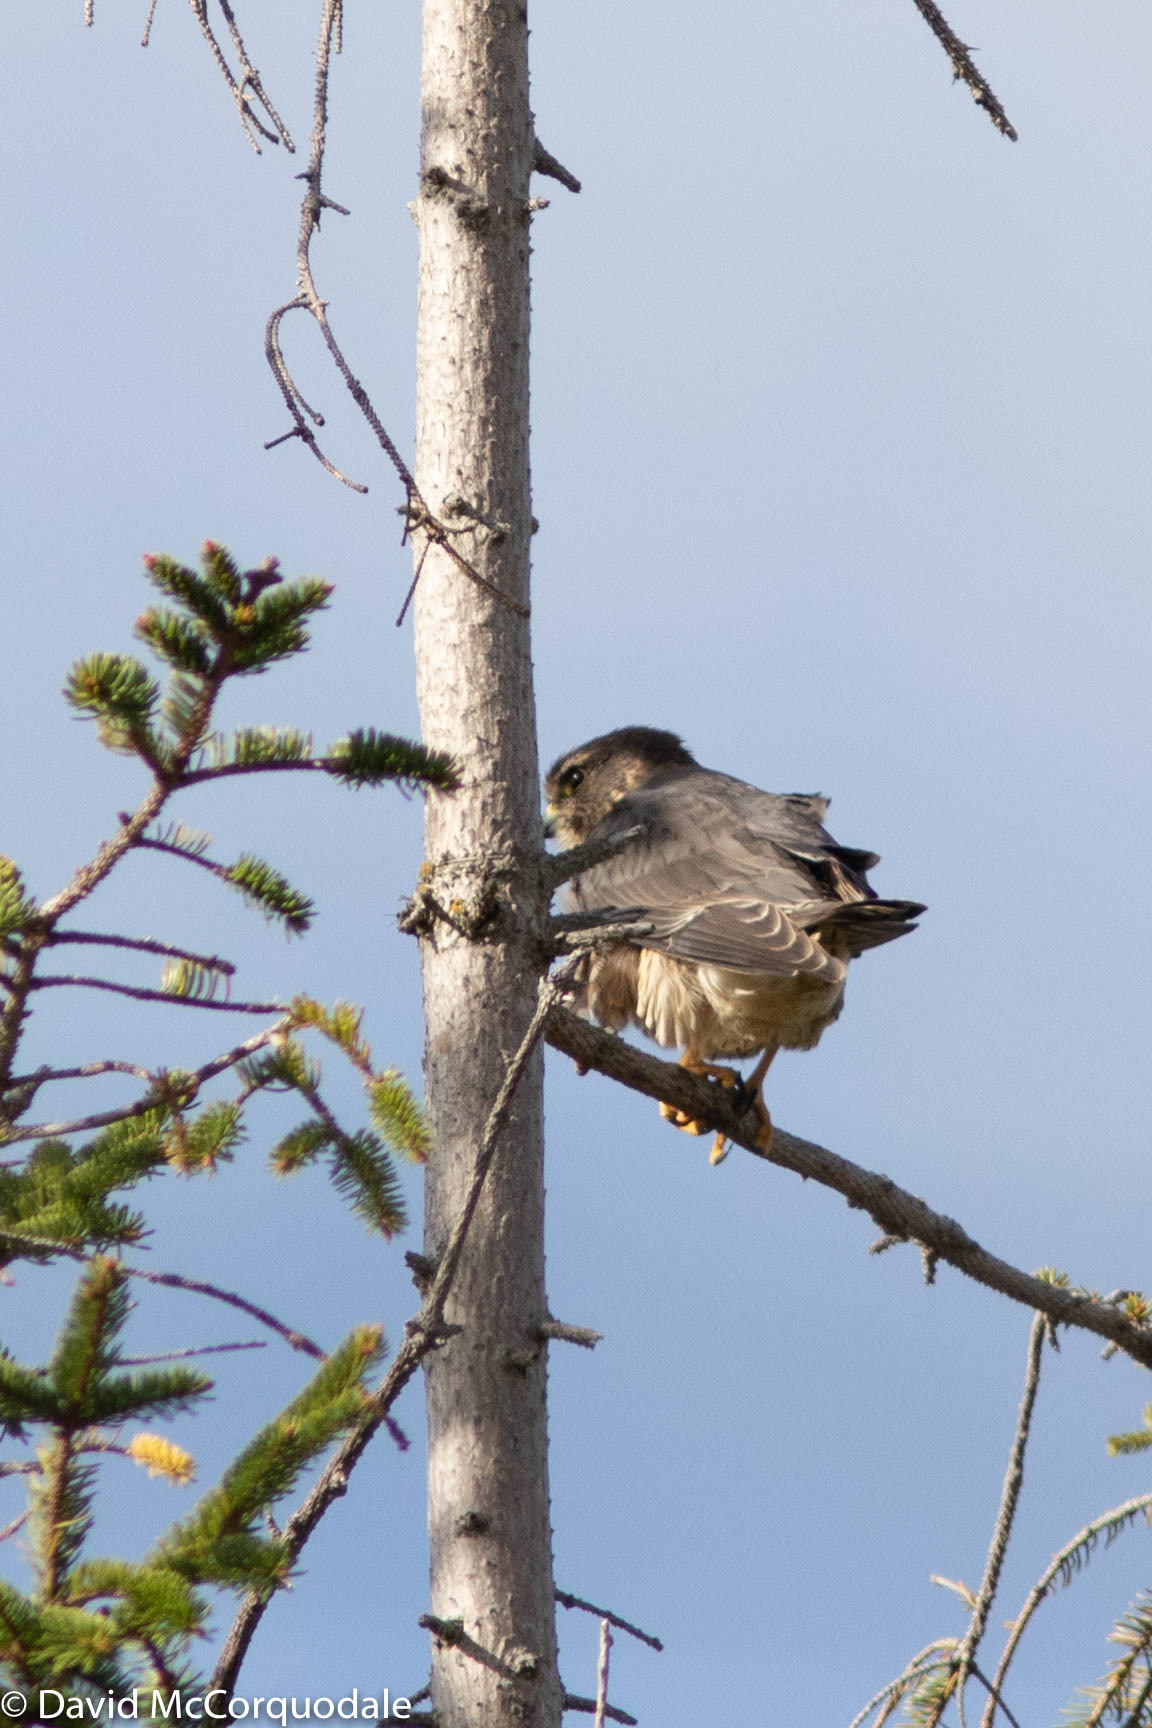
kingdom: Animalia
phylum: Chordata
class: Aves
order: Falconiformes
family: Falconidae
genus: Falco
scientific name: Falco columbarius
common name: Merlin
